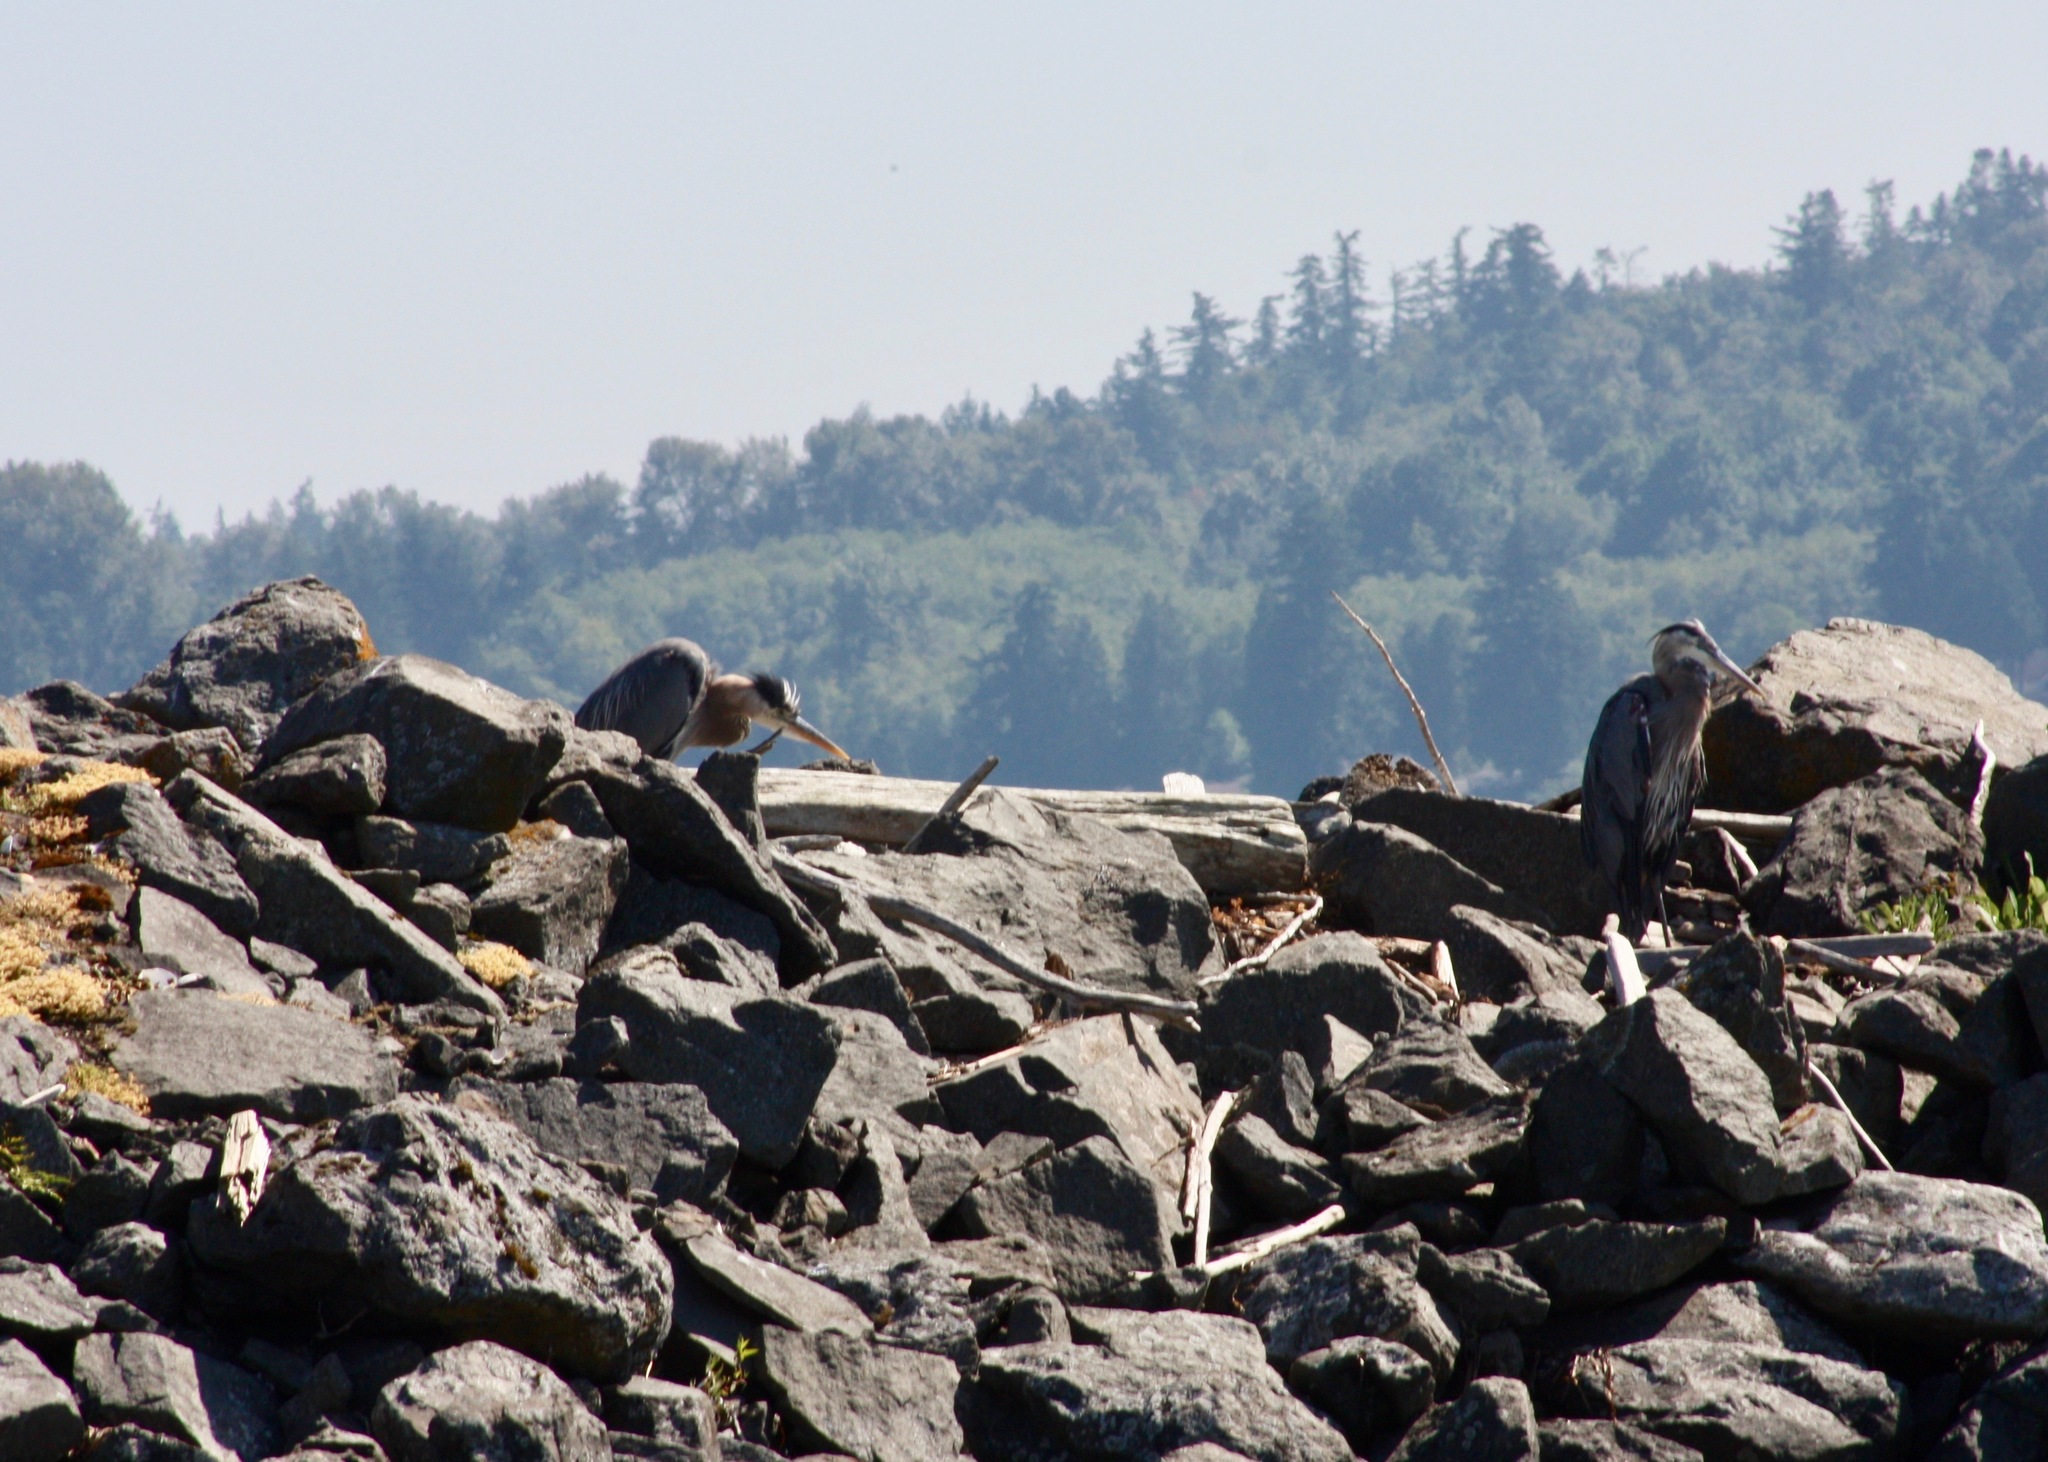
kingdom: Animalia
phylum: Chordata
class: Aves
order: Pelecaniformes
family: Ardeidae
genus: Ardea
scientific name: Ardea herodias
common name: Great blue heron
